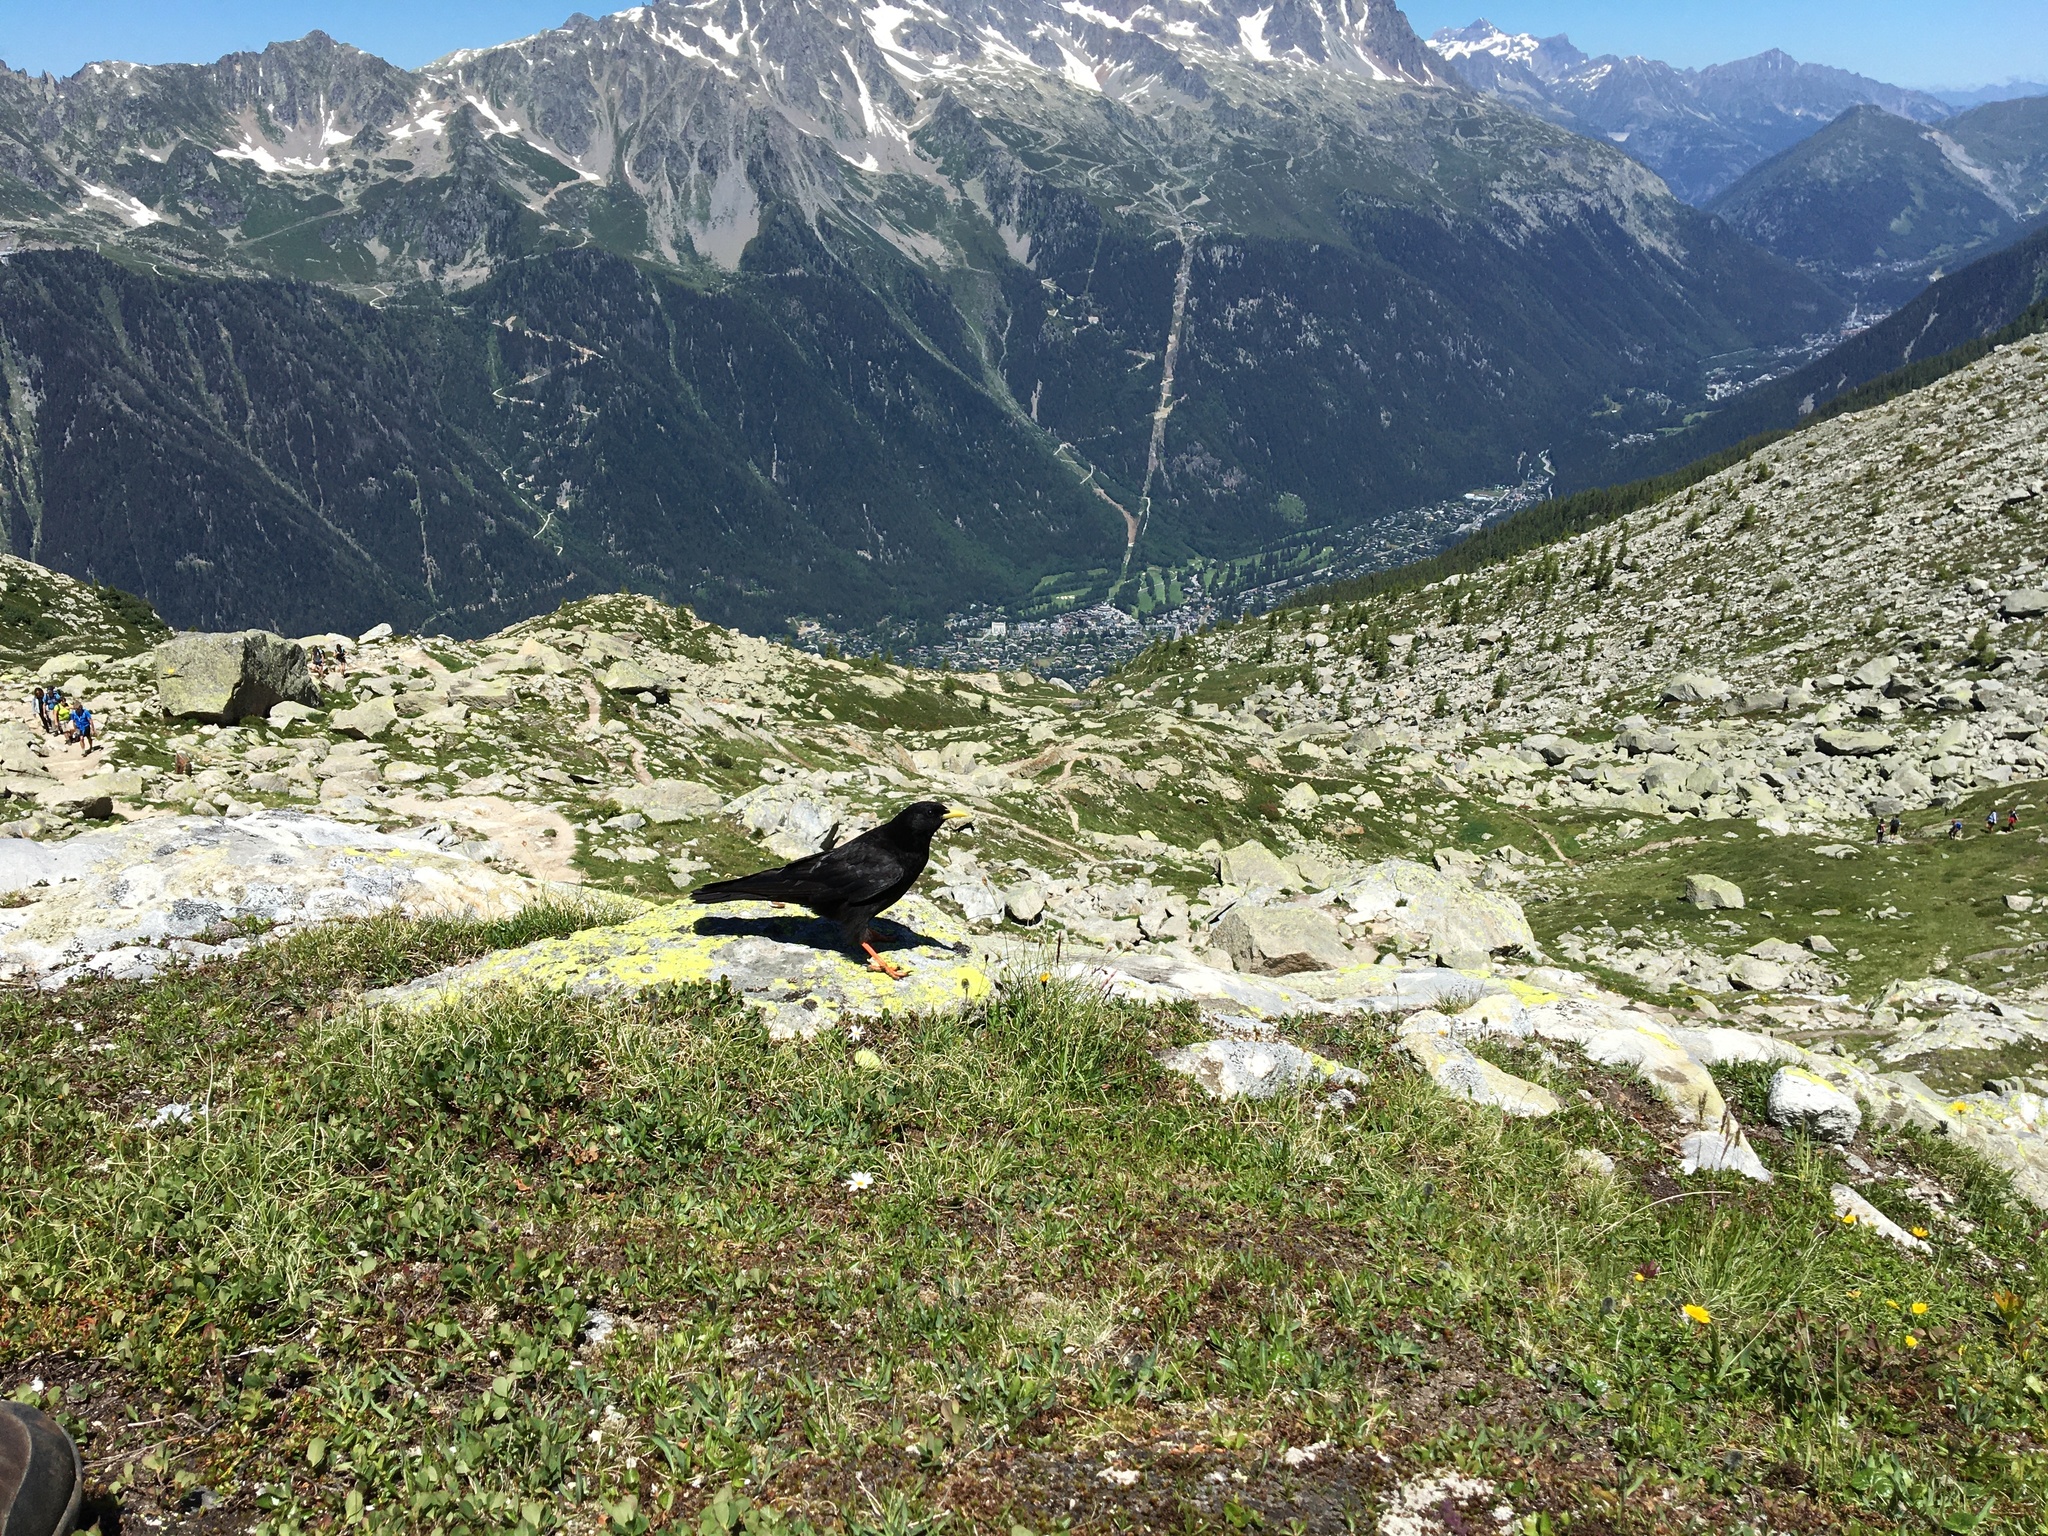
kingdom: Animalia
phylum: Chordata
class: Aves
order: Passeriformes
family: Corvidae
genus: Pyrrhocorax
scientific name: Pyrrhocorax graculus
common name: Alpine chough
